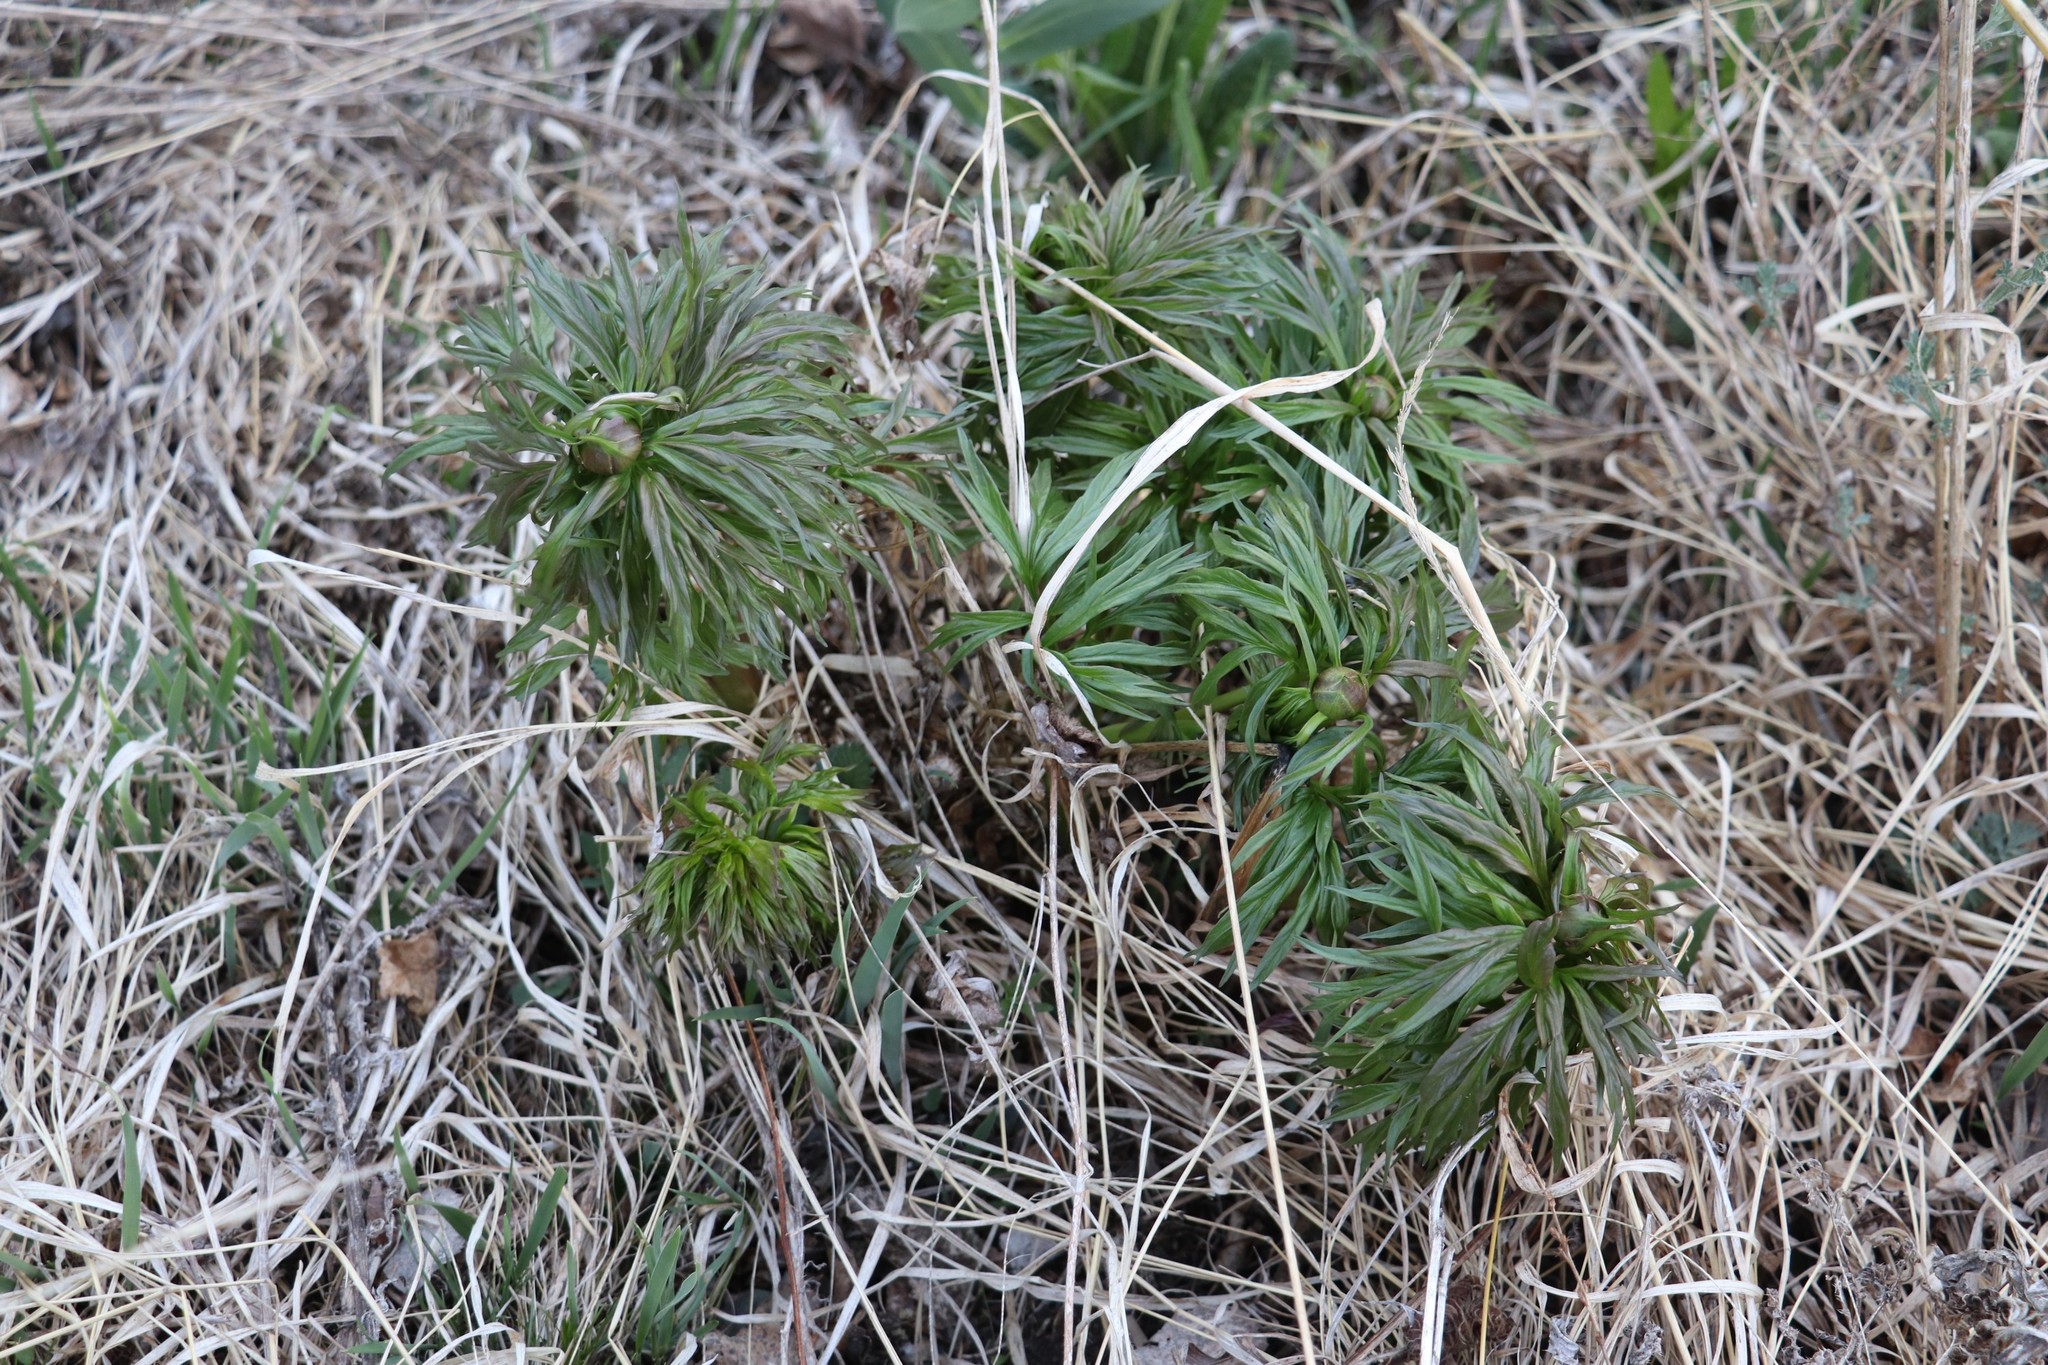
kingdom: Plantae
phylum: Tracheophyta
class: Magnoliopsida
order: Saxifragales
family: Paeoniaceae
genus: Paeonia
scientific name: Paeonia anomala
